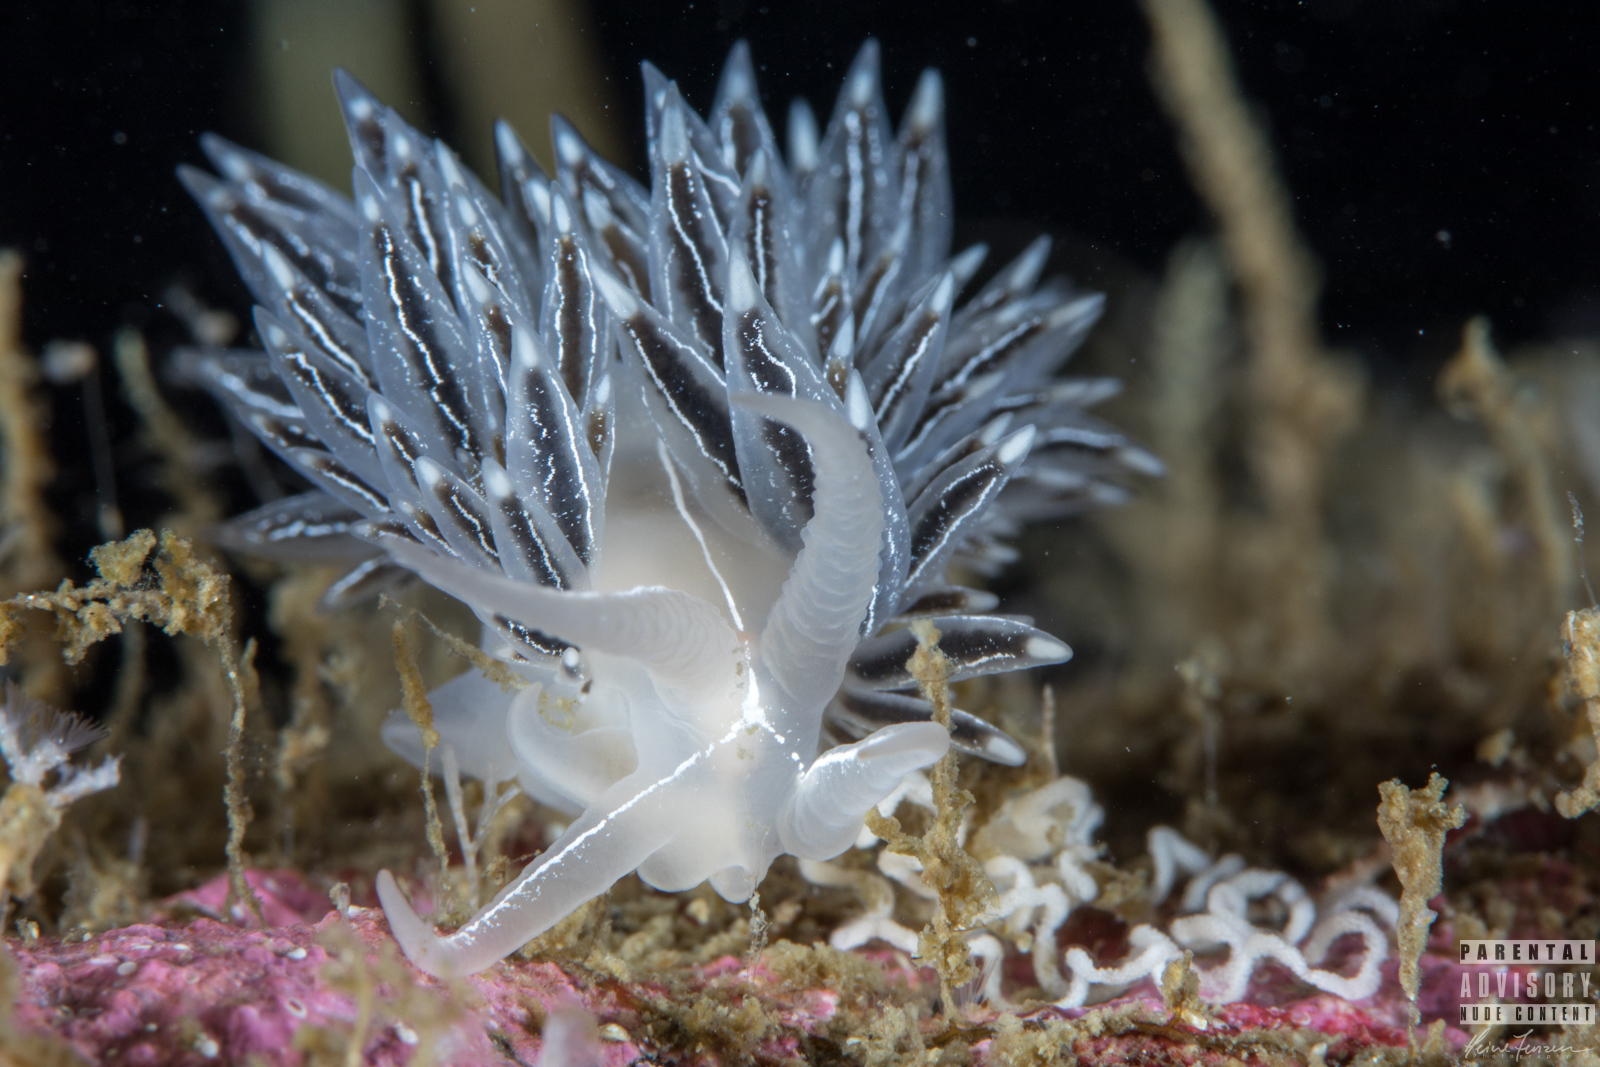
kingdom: Animalia
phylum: Mollusca
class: Gastropoda
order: Nudibranchia
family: Coryphellidae
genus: Coryphella
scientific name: Coryphella chriskaugei
